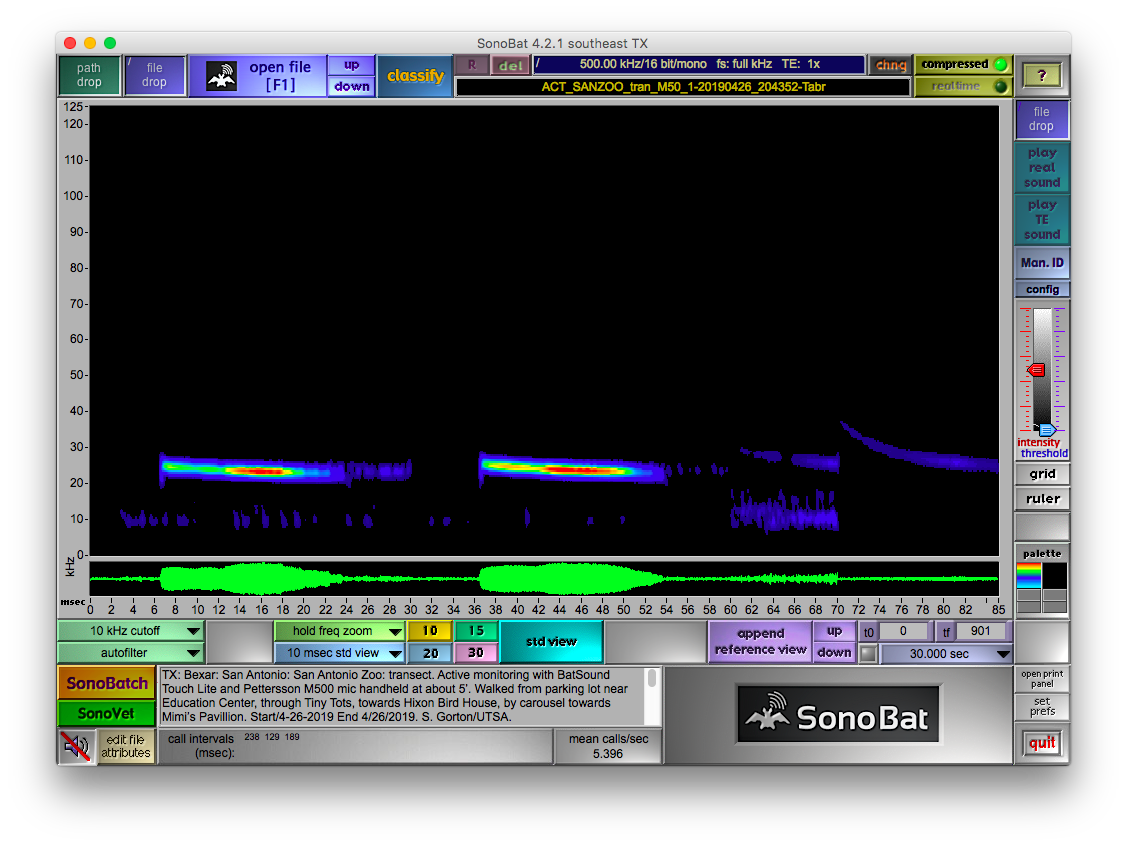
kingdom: Animalia
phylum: Chordata
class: Mammalia
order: Chiroptera
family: Molossidae
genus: Tadarida
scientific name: Tadarida brasiliensis
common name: Mexican free-tailed bat
